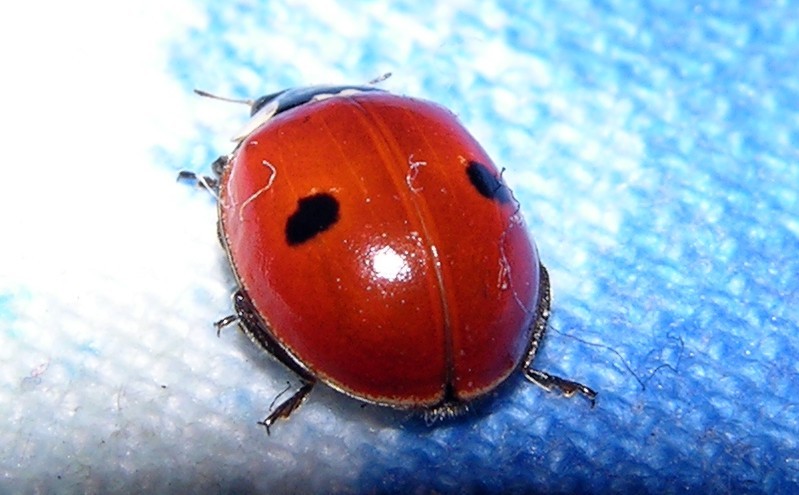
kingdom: Animalia
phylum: Arthropoda
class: Insecta
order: Coleoptera
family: Coccinellidae
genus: Adalia
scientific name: Adalia bipunctata
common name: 2-spot ladybird
